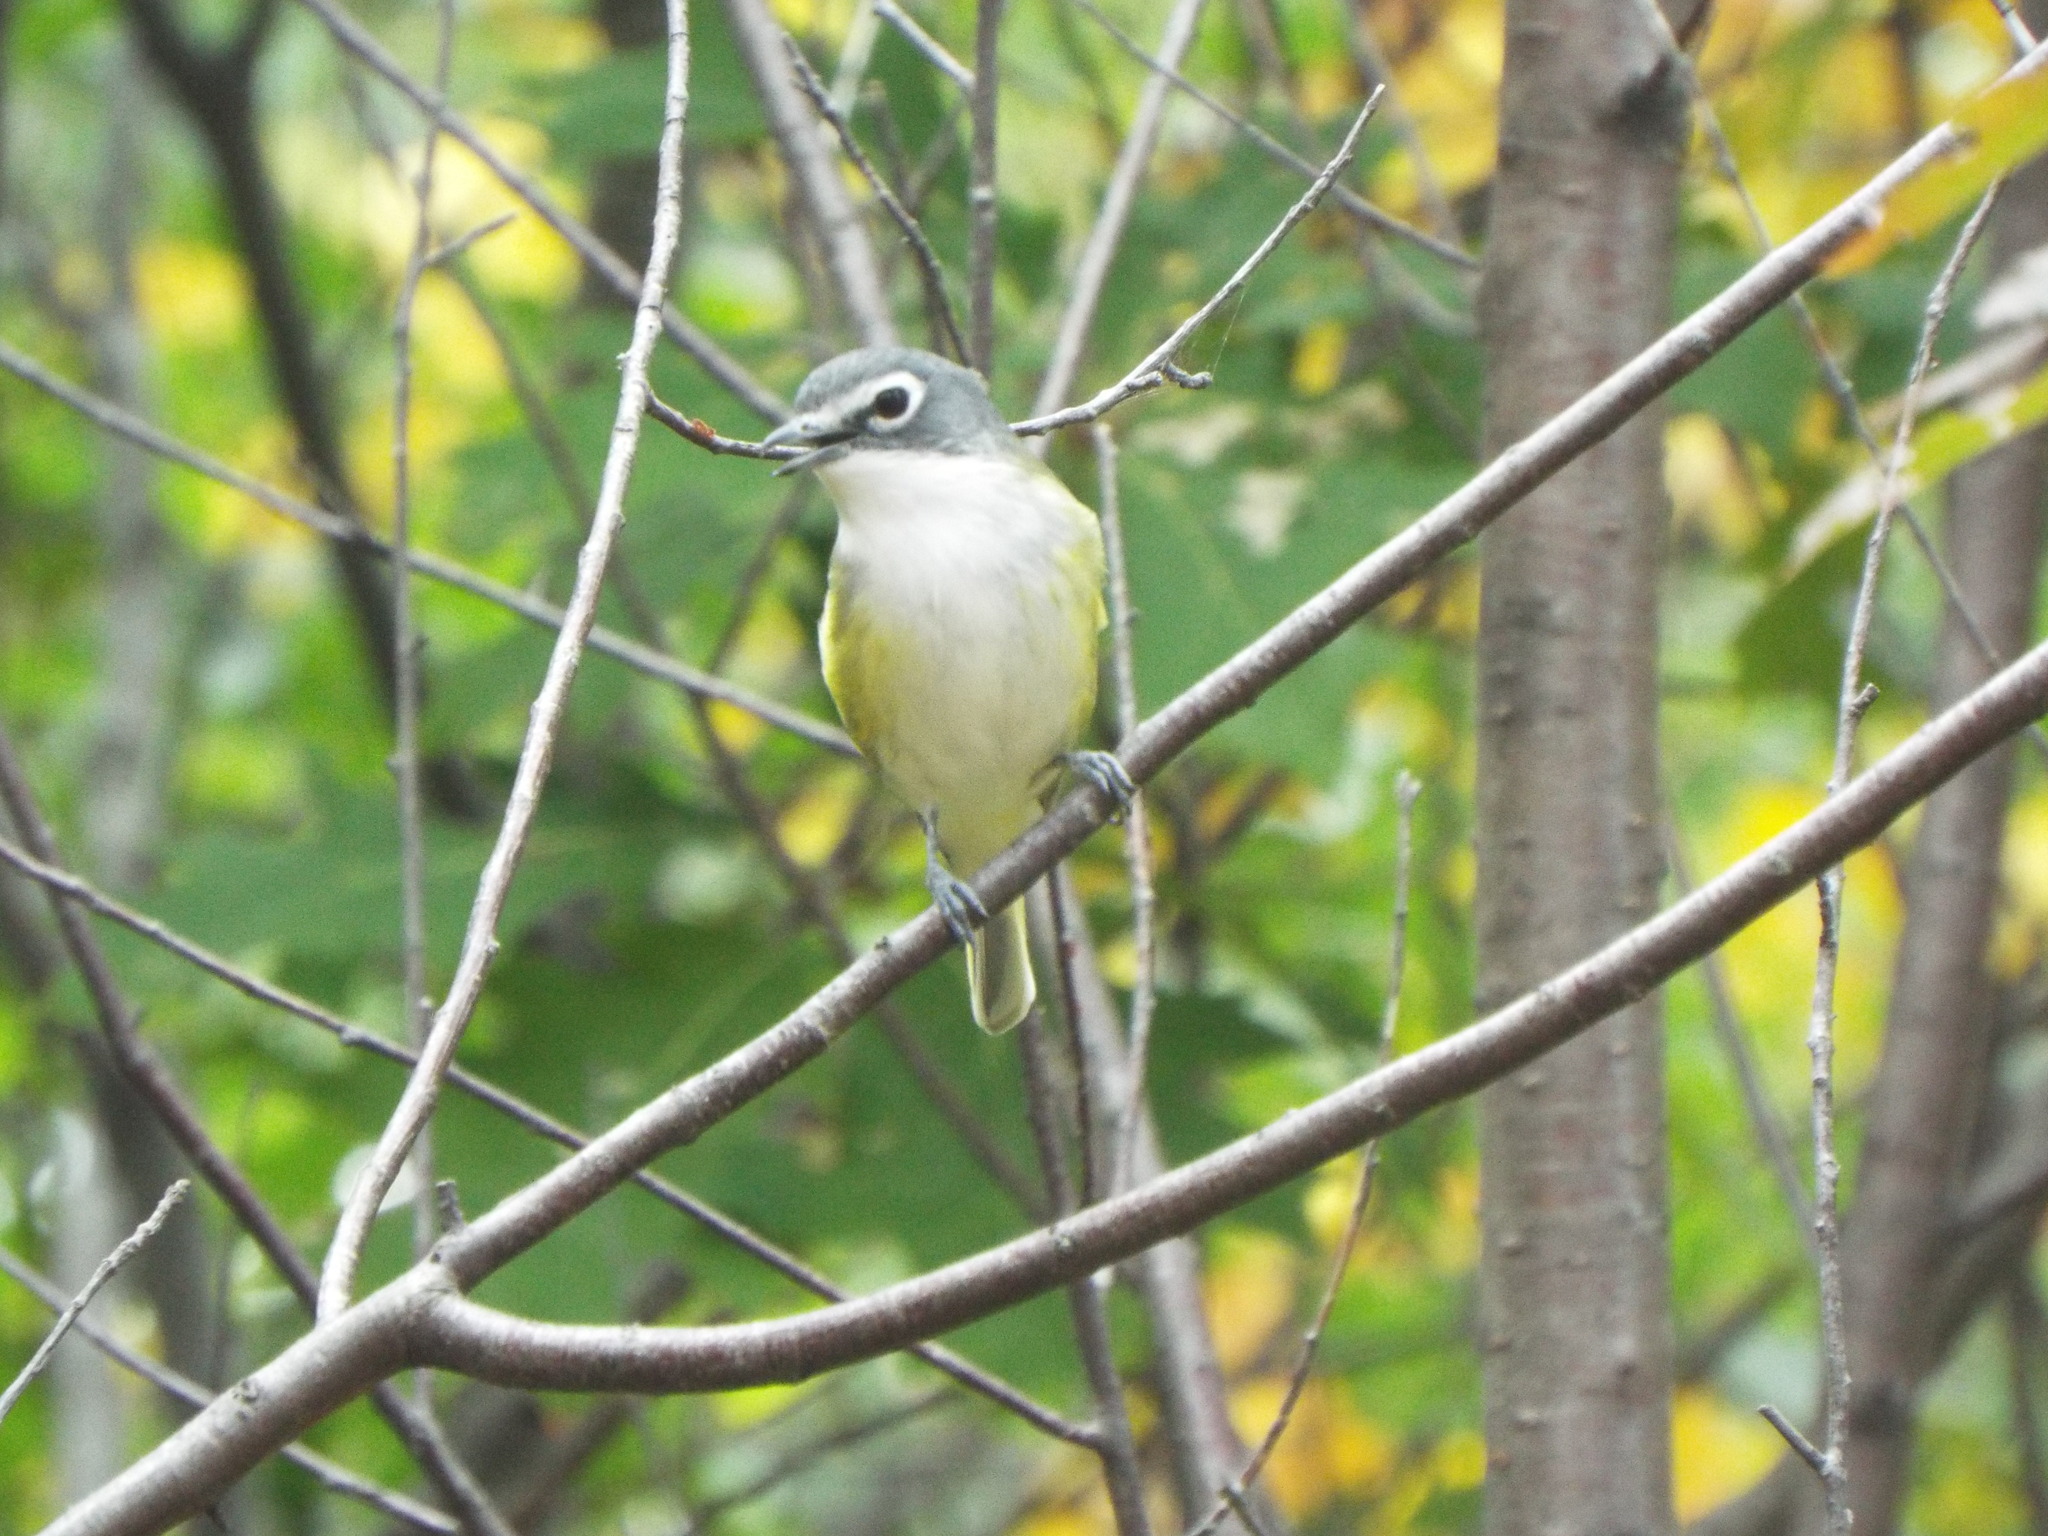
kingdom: Animalia
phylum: Chordata
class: Aves
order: Passeriformes
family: Vireonidae
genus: Vireo
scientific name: Vireo solitarius
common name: Blue-headed vireo
